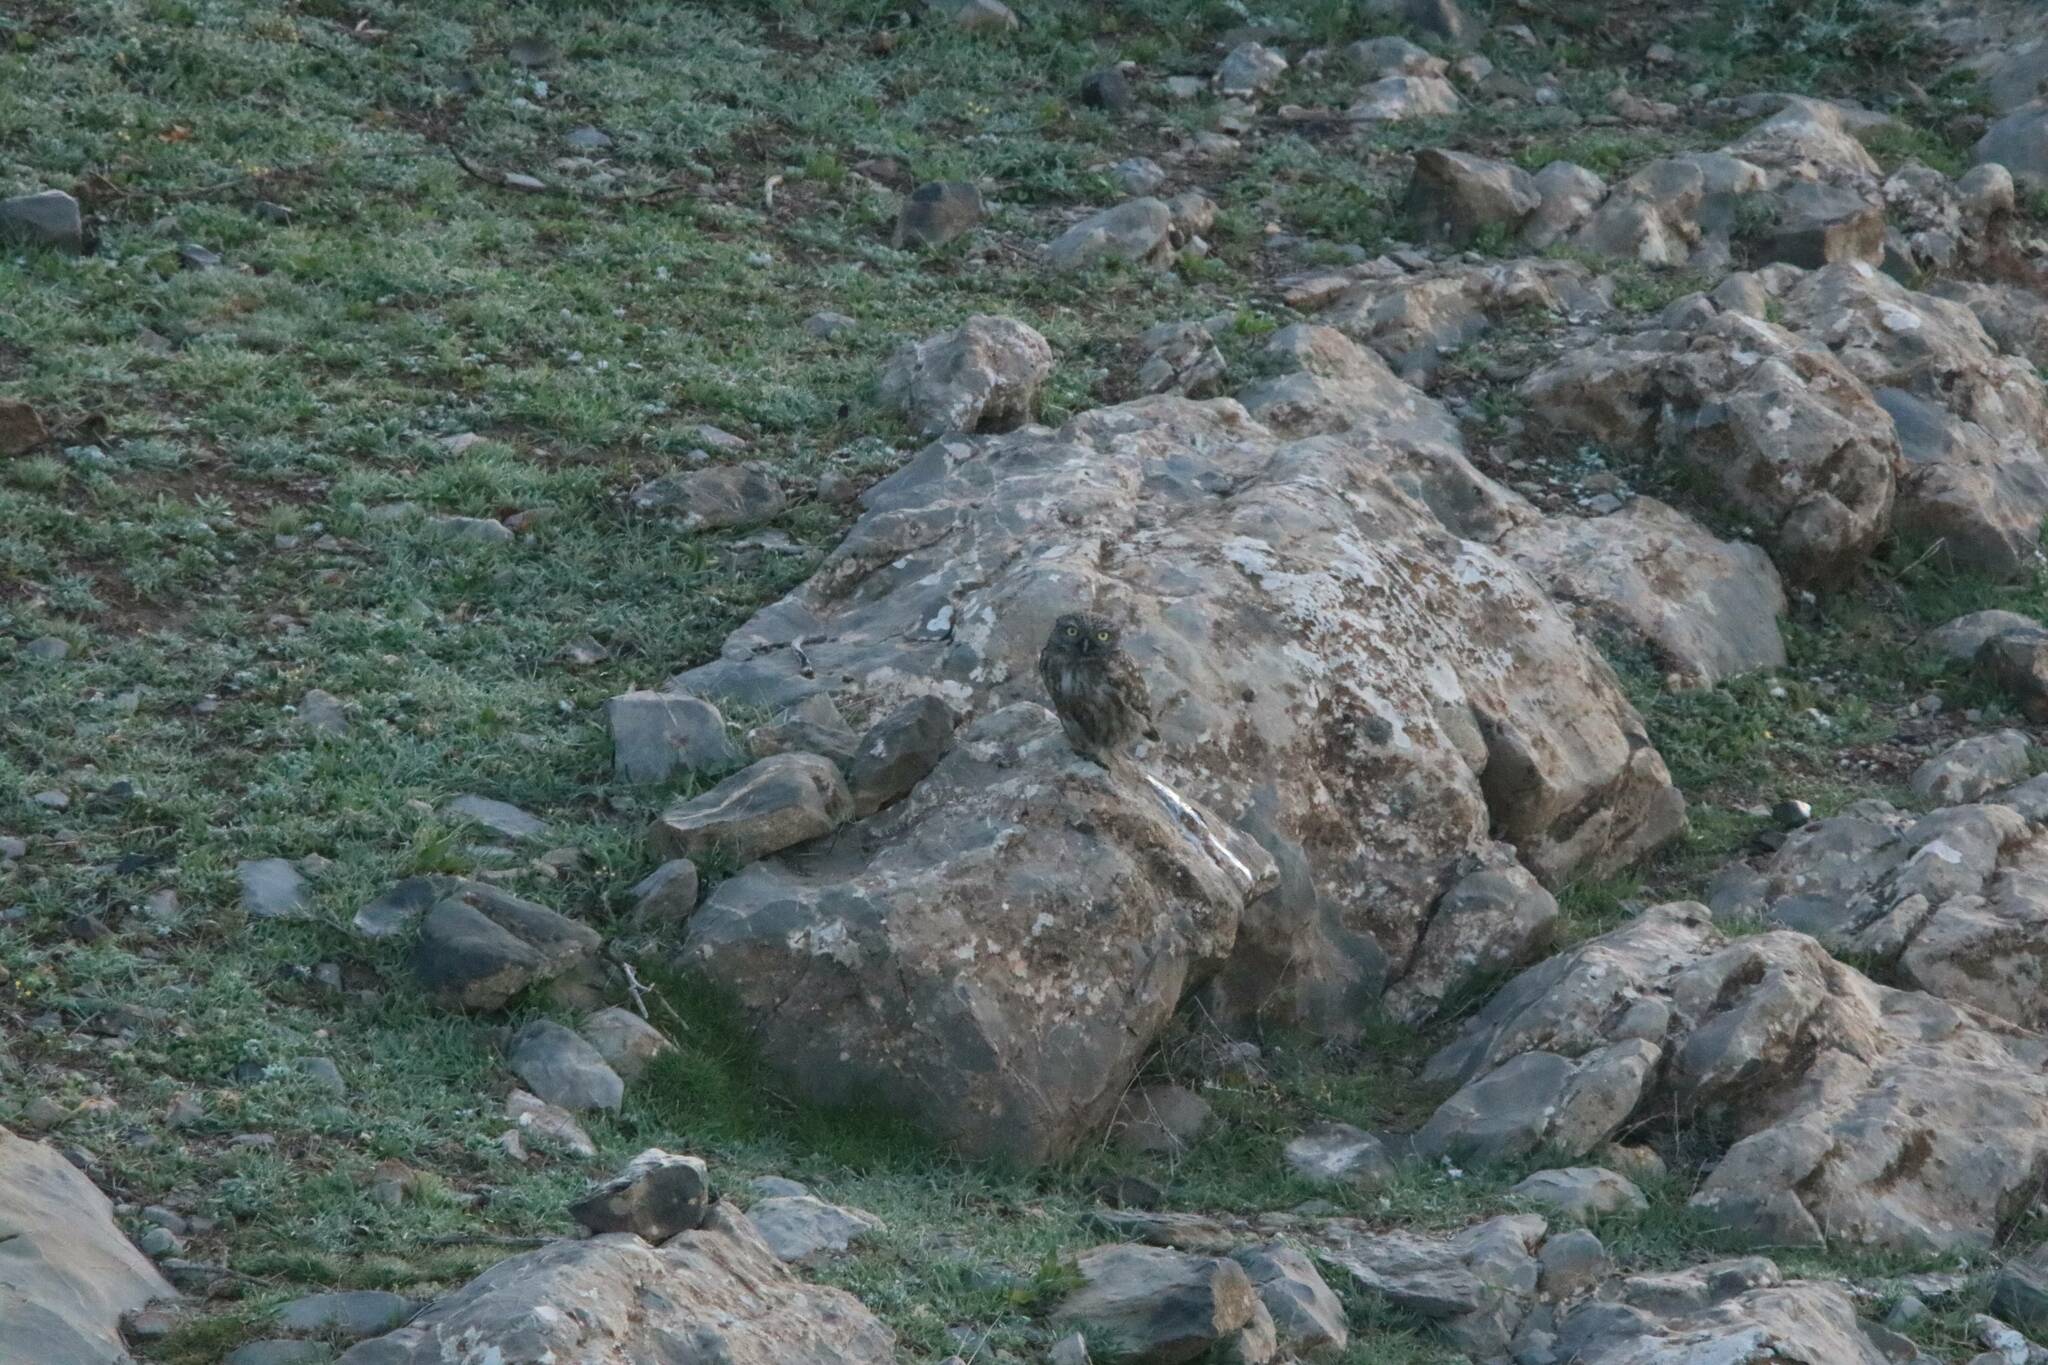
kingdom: Animalia
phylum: Chordata
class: Aves
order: Strigiformes
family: Strigidae
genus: Athene
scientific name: Athene noctua
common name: Little owl
